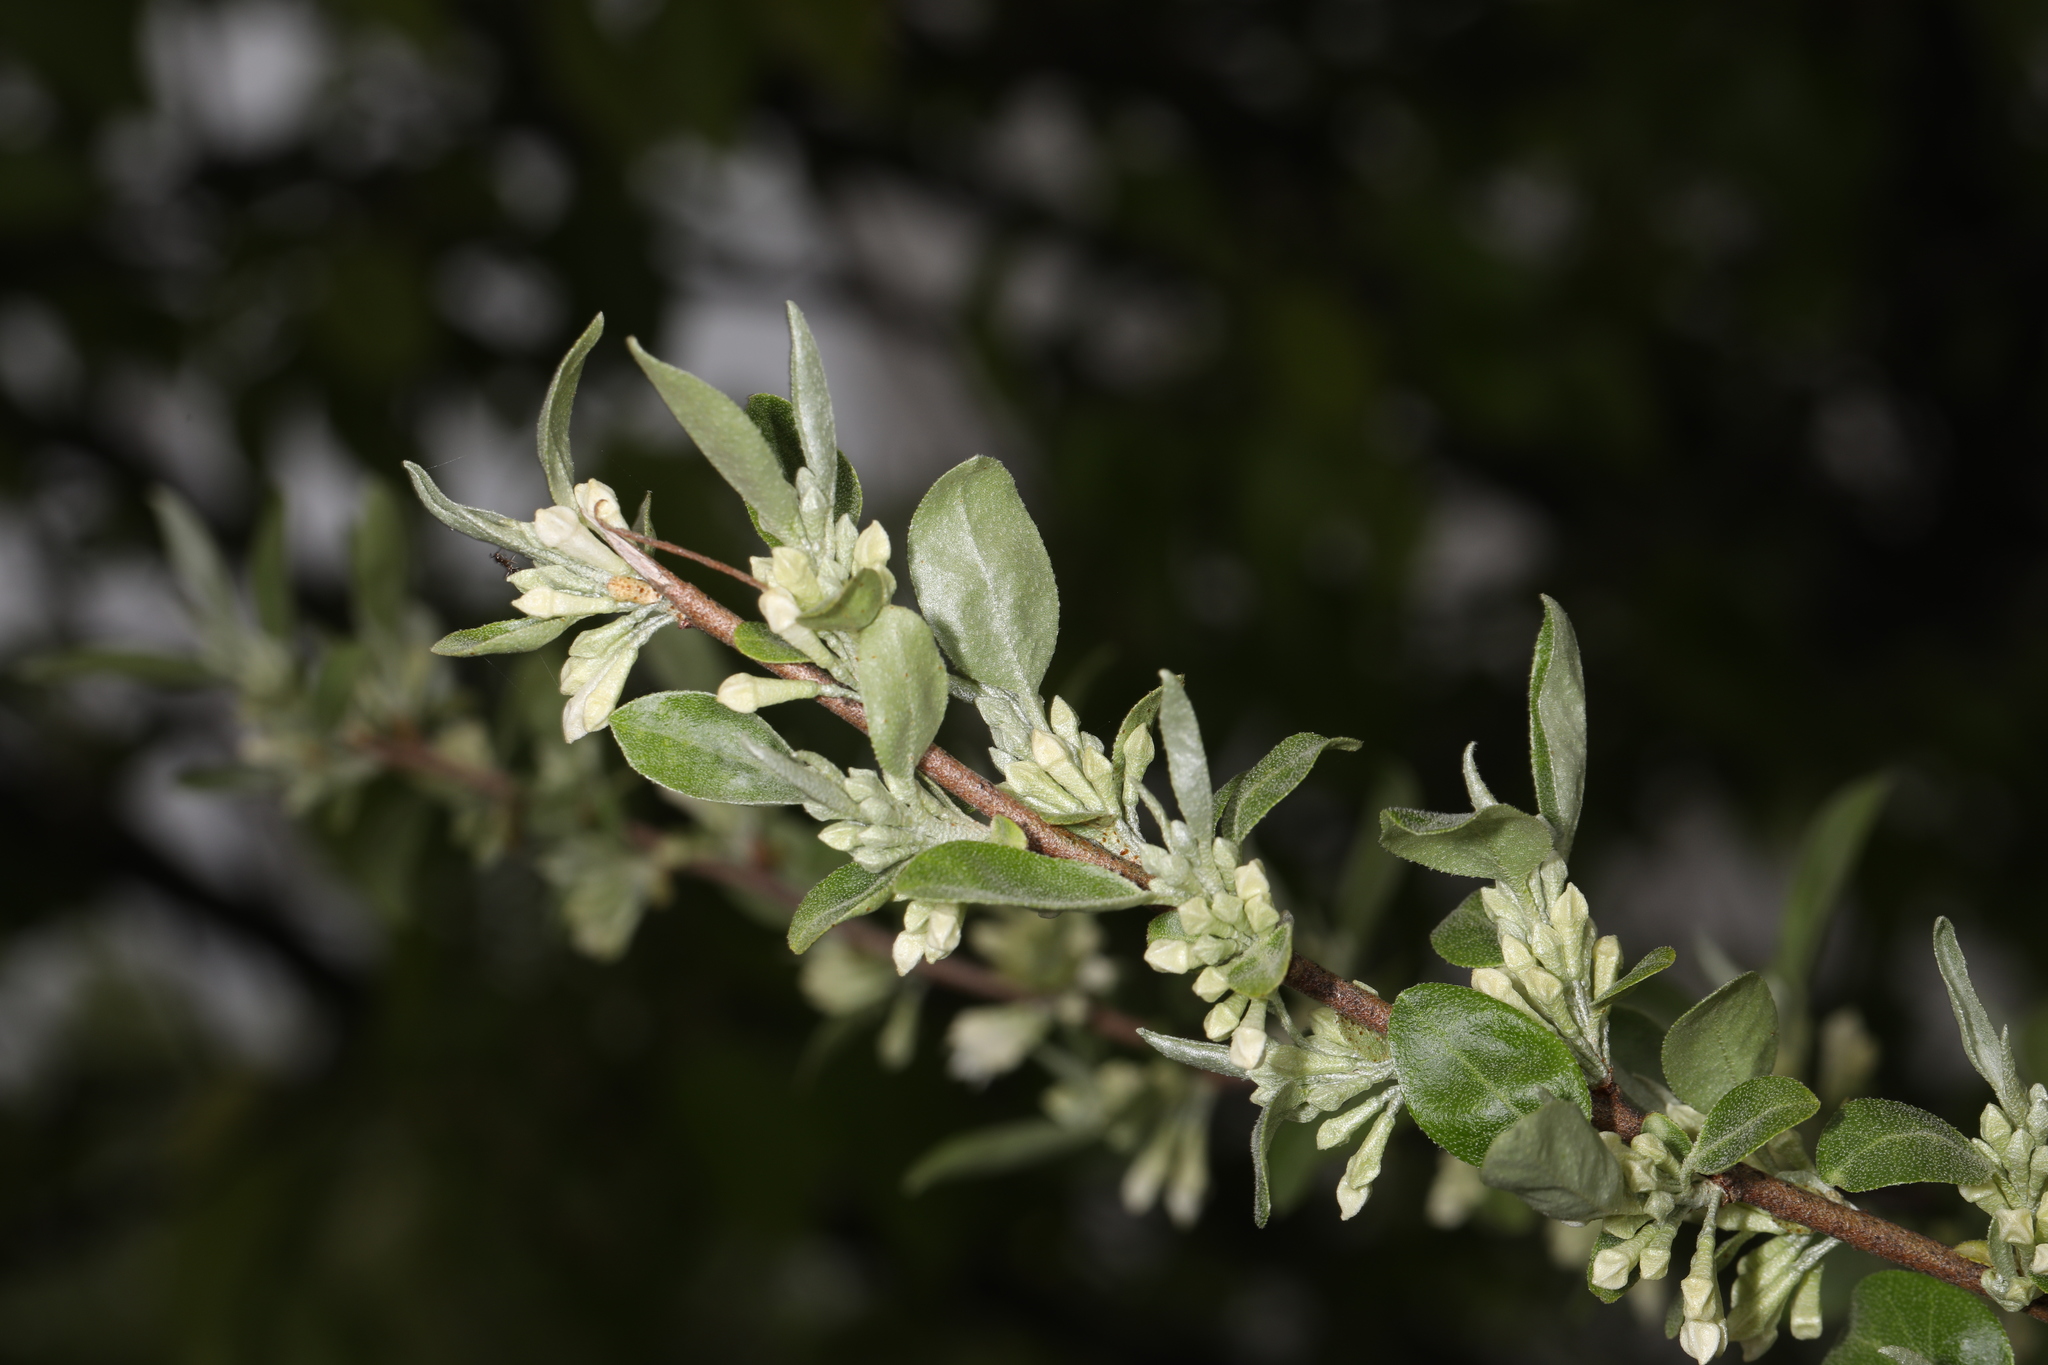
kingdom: Plantae
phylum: Tracheophyta
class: Magnoliopsida
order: Rosales
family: Elaeagnaceae
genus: Elaeagnus
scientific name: Elaeagnus umbellata
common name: Autumn olive
